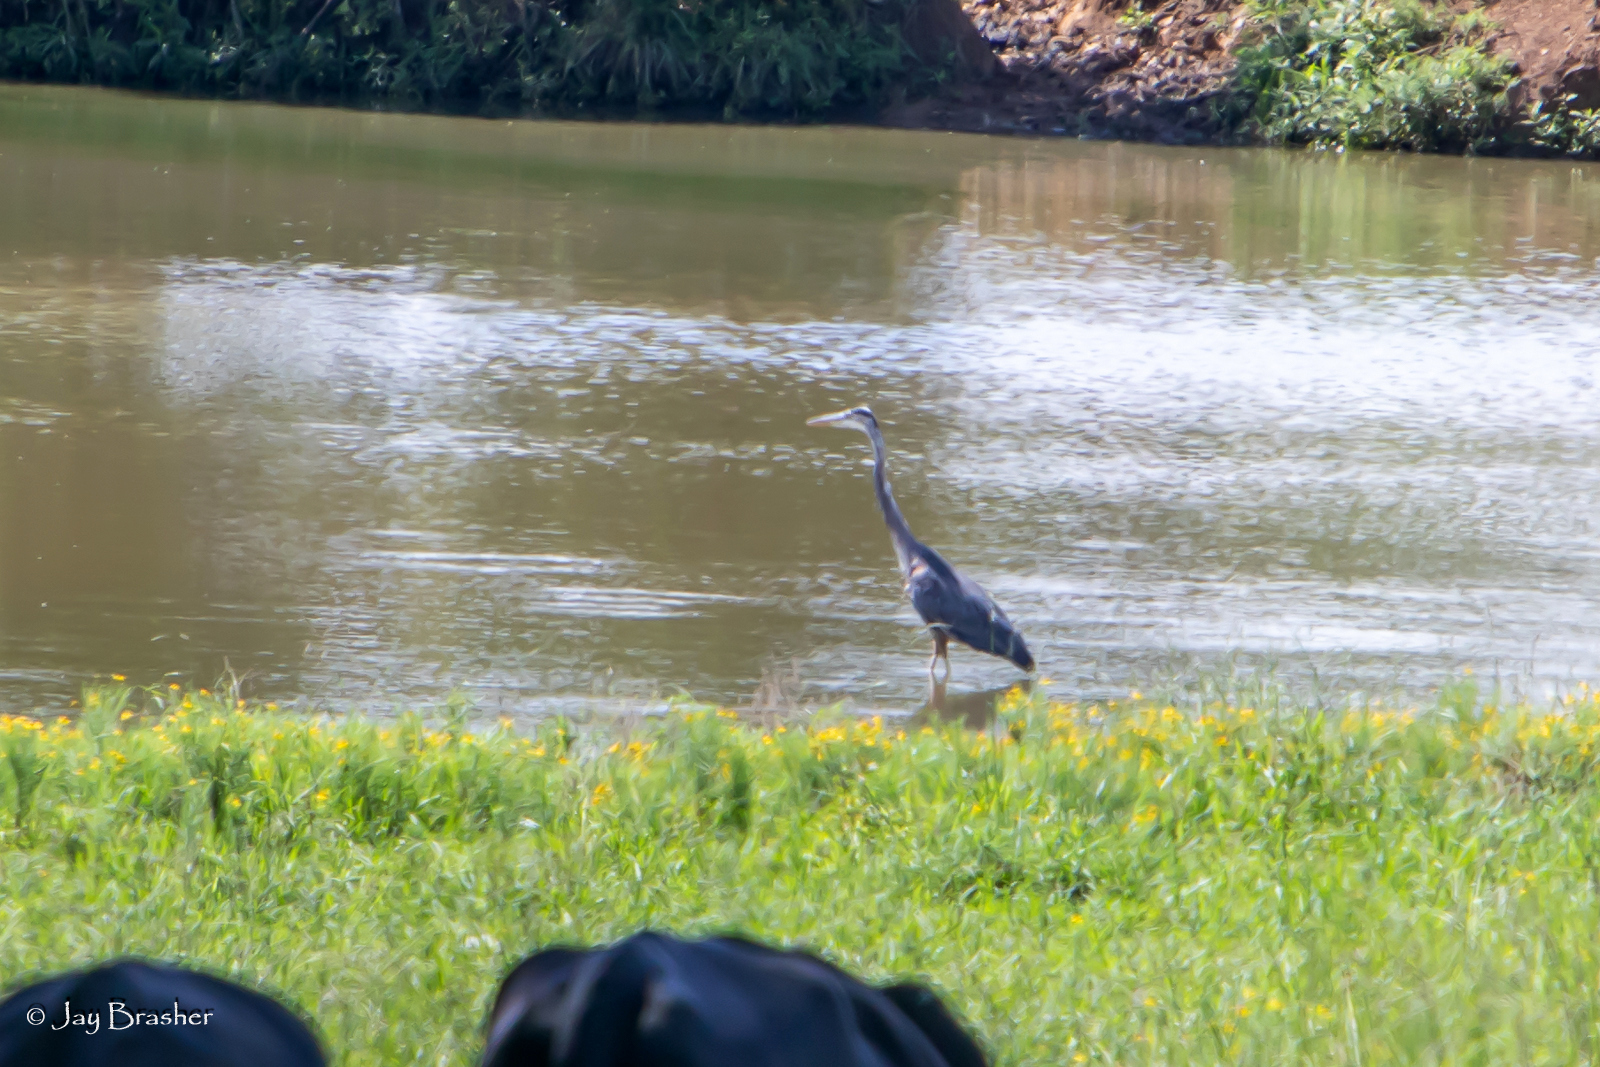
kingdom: Animalia
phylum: Chordata
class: Aves
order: Pelecaniformes
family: Ardeidae
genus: Ardea
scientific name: Ardea herodias
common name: Great blue heron
